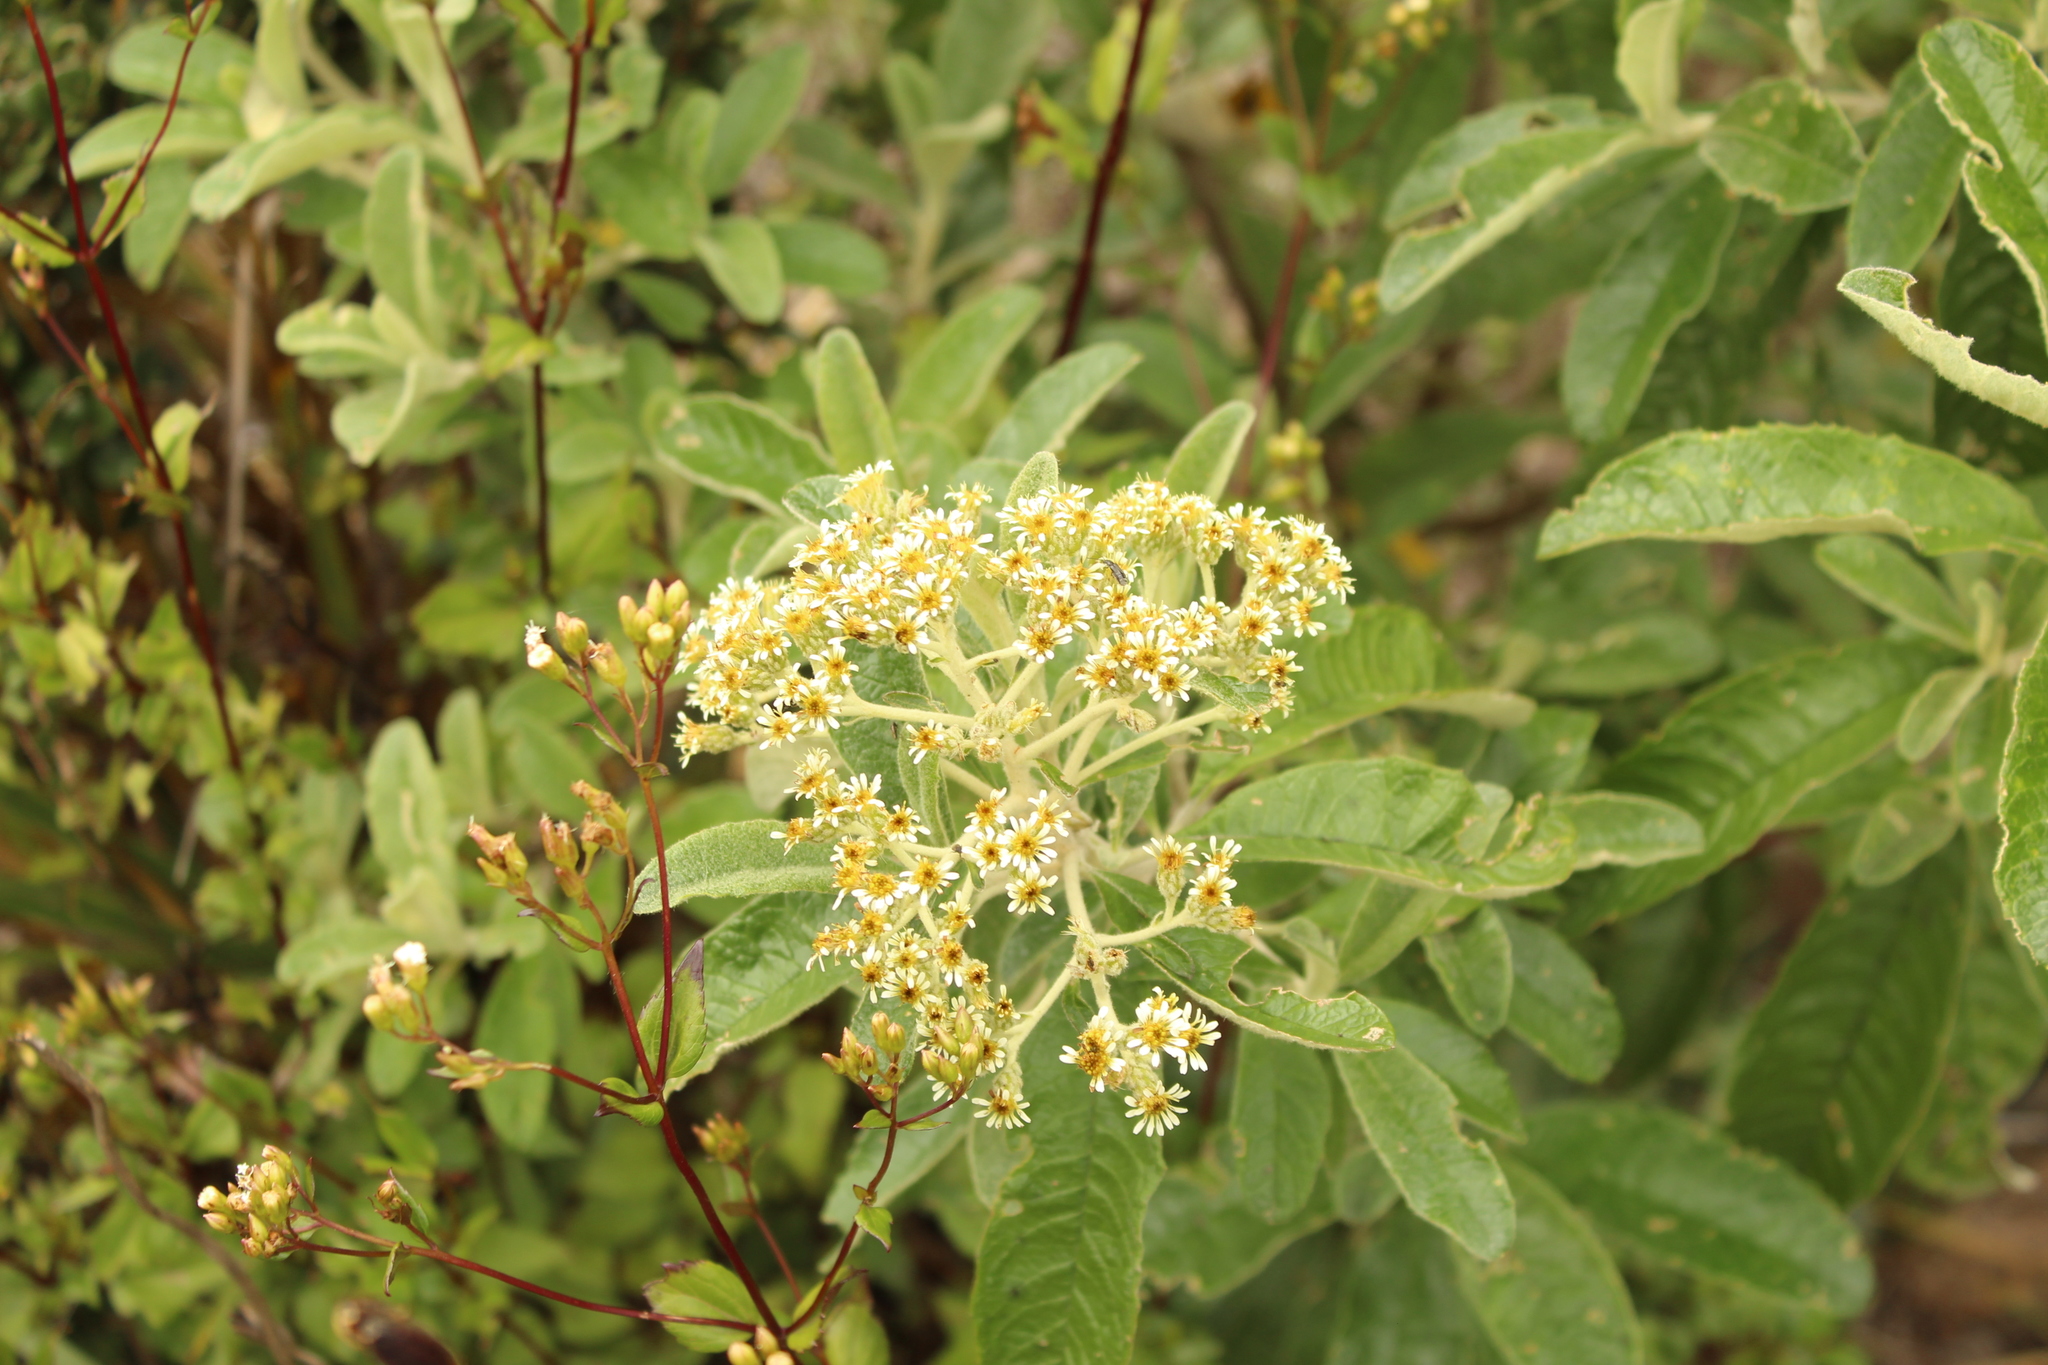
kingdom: Plantae
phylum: Tracheophyta
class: Magnoliopsida
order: Asterales
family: Asteraceae
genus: Linochilus
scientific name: Linochilus tenuifolius
